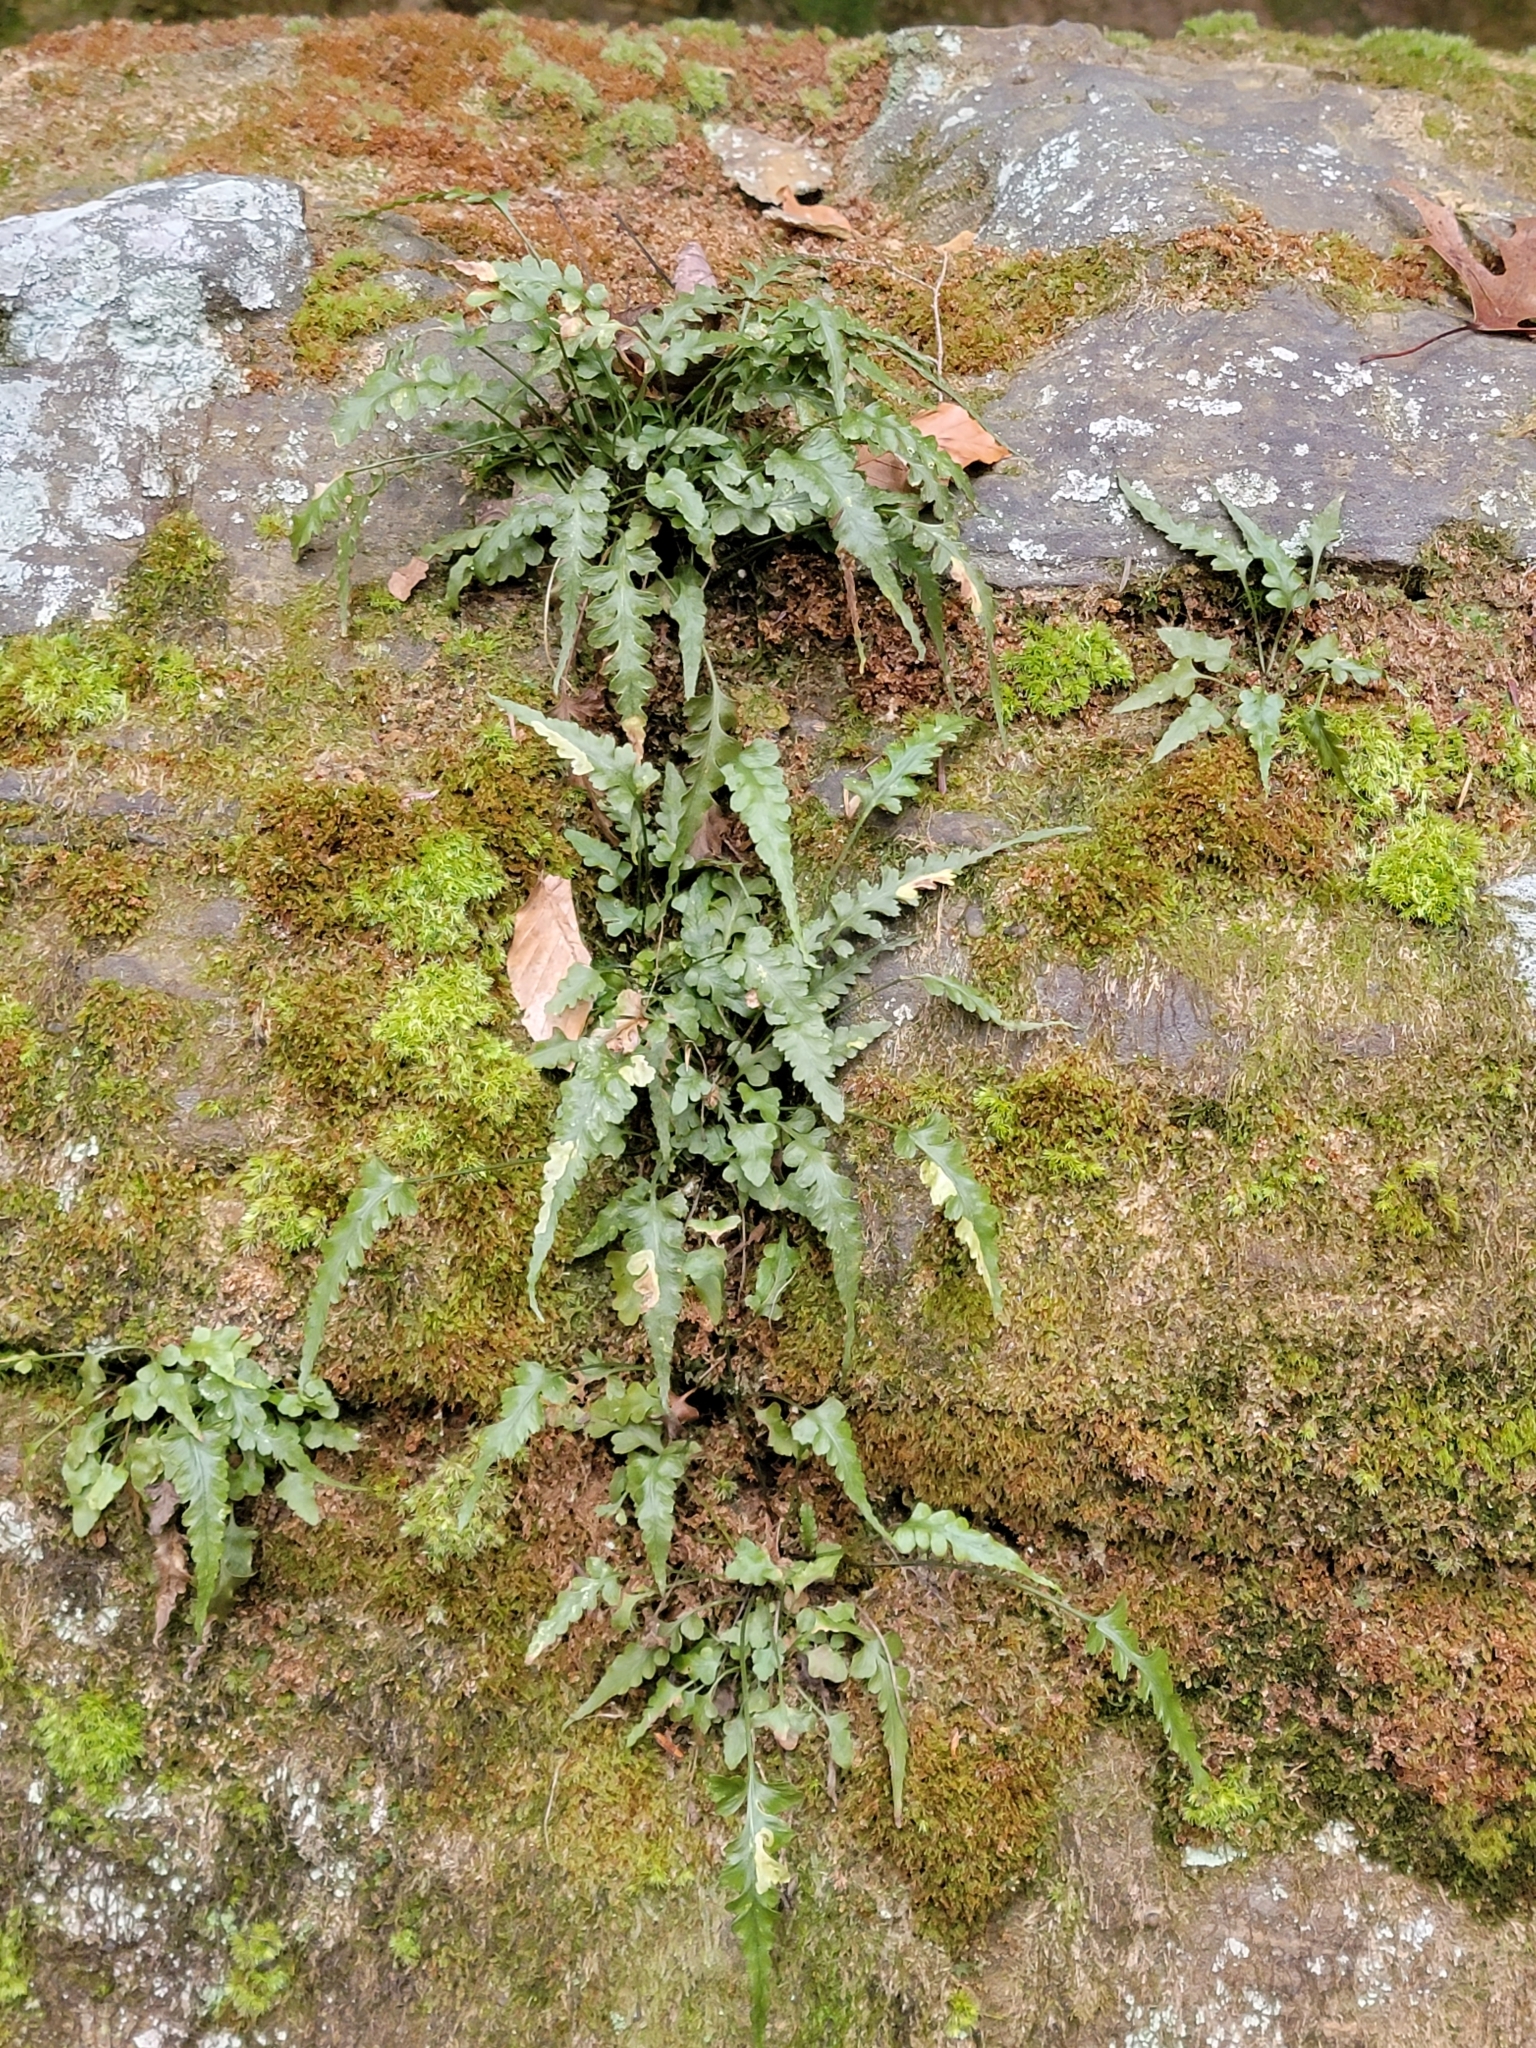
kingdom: Plantae
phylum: Tracheophyta
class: Polypodiopsida
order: Polypodiales
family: Aspleniaceae
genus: Asplenium
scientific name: Asplenium pinnatifidum
